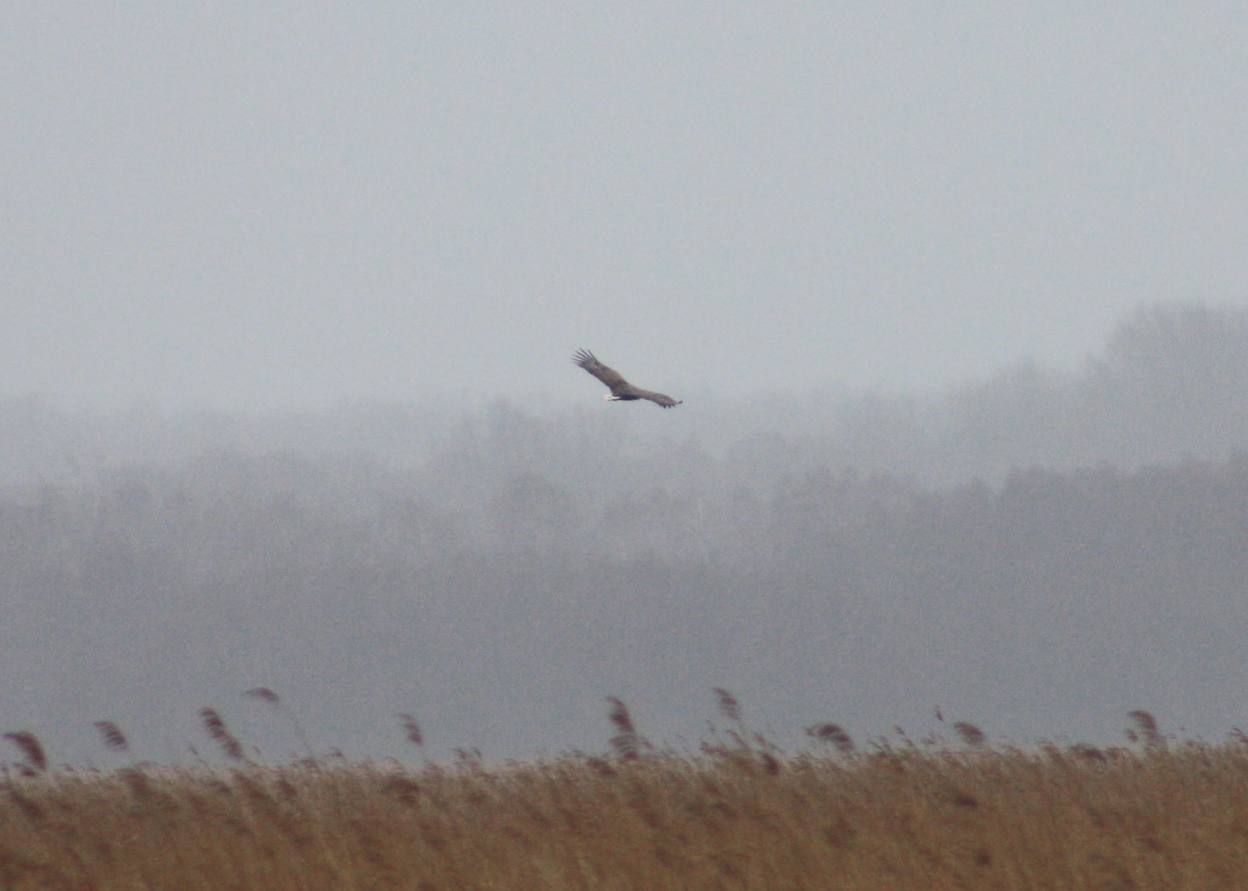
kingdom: Animalia
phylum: Chordata
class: Aves
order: Accipitriformes
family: Accipitridae
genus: Haliaeetus
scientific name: Haliaeetus albicilla
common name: White-tailed eagle
